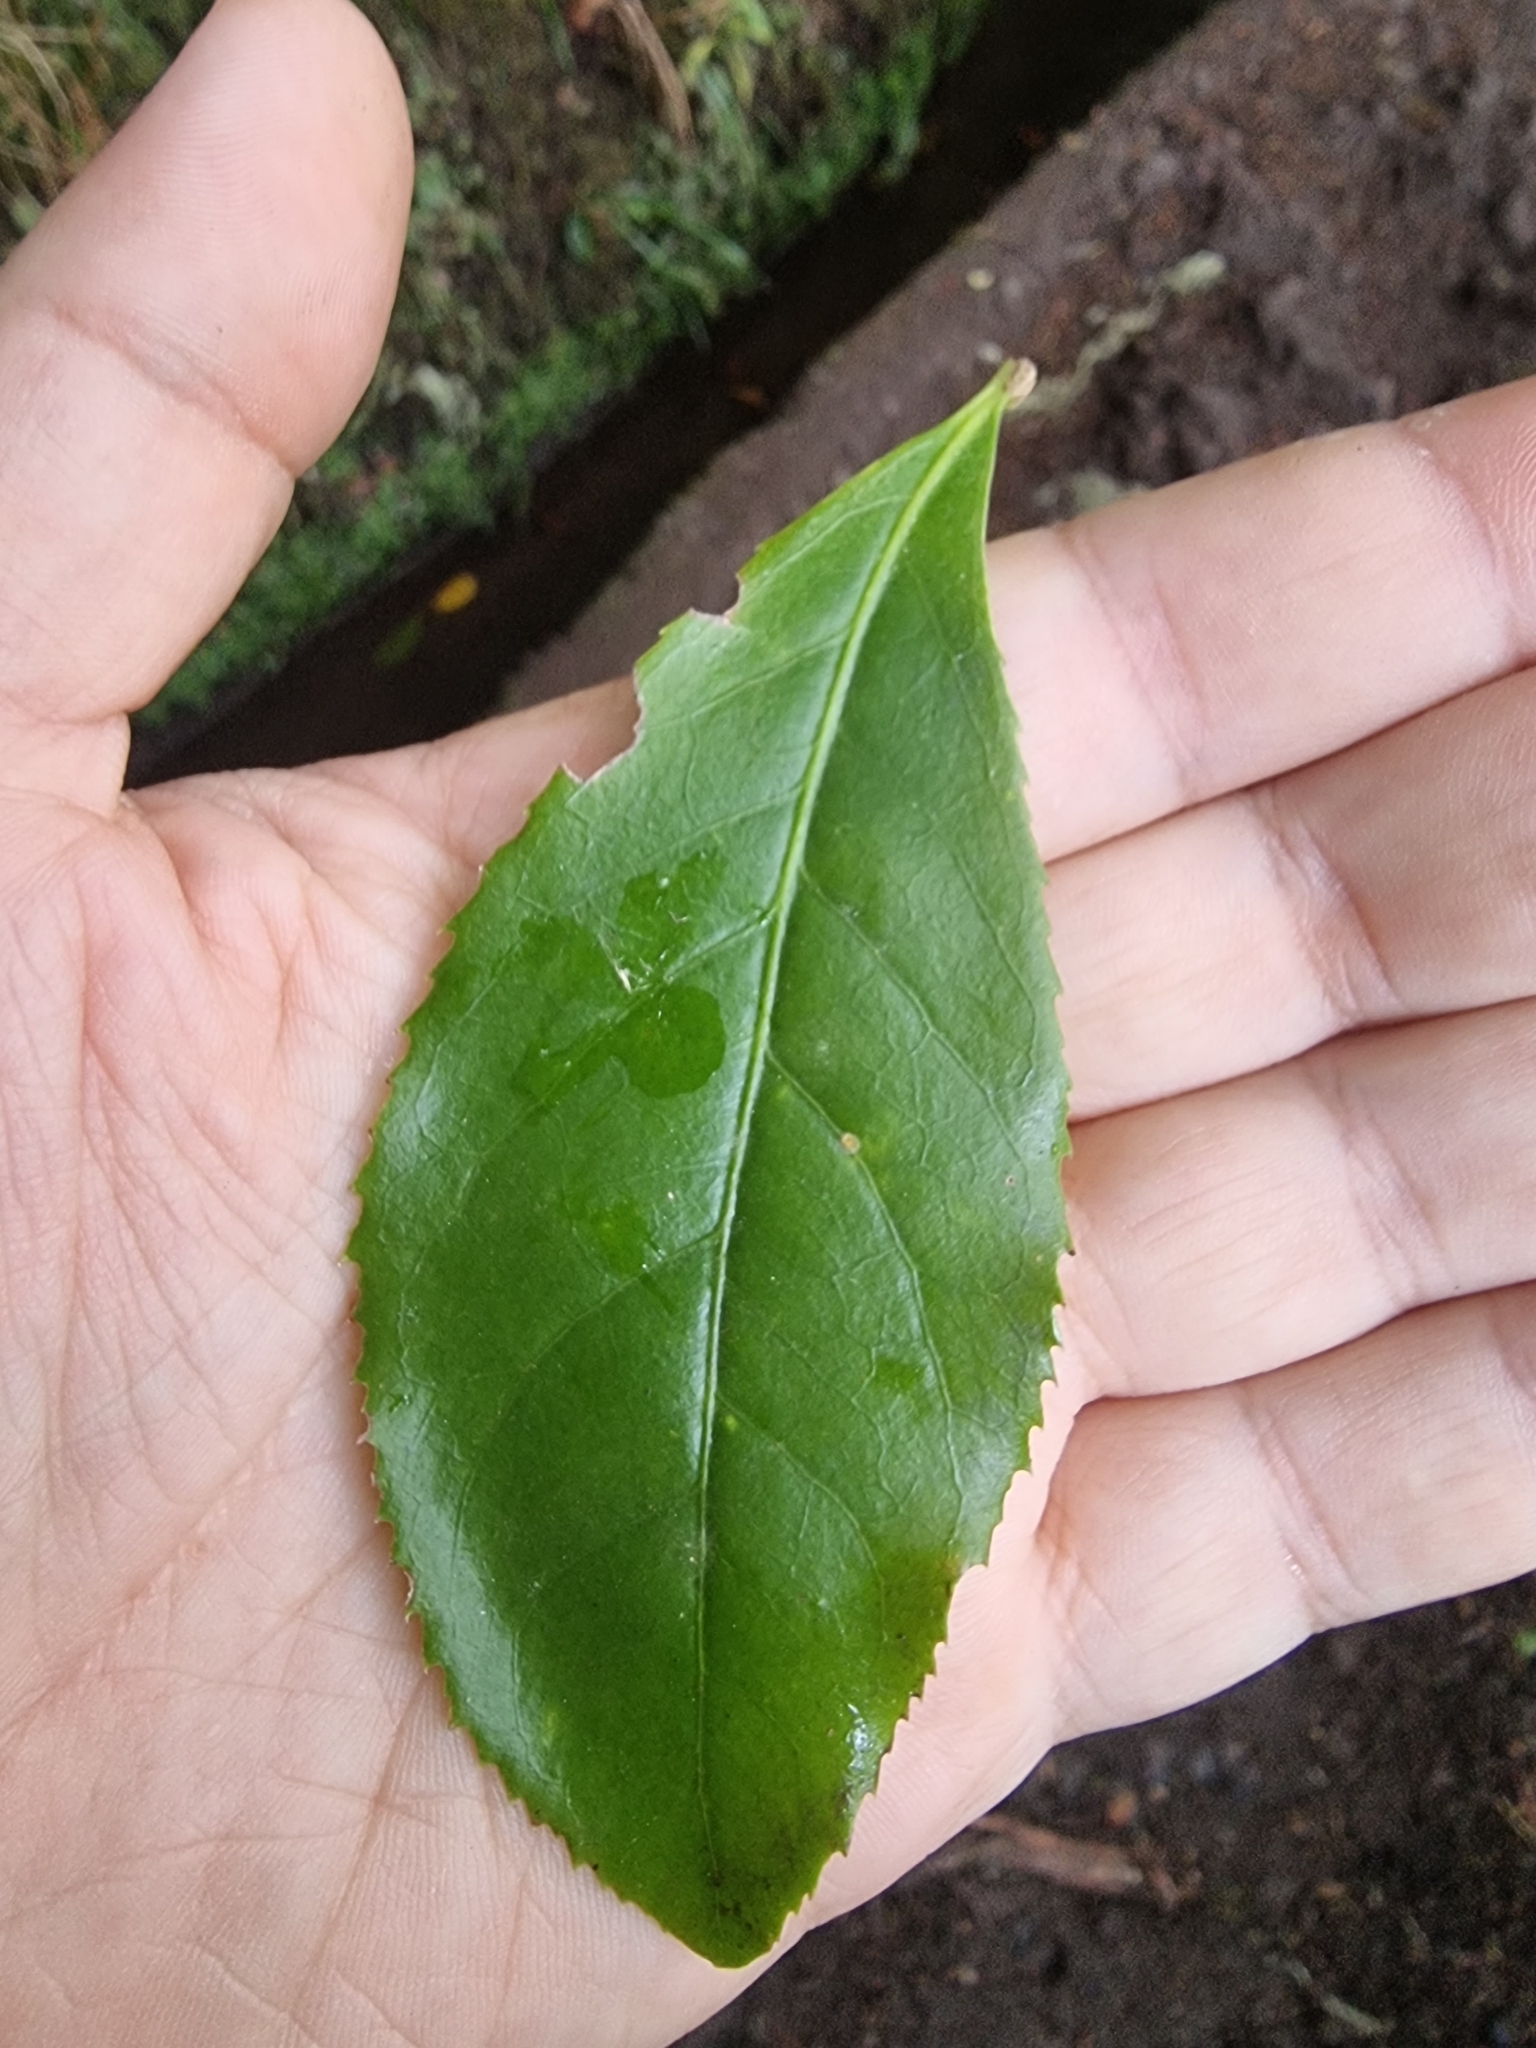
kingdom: Plantae
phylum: Tracheophyta
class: Magnoliopsida
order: Lamiales
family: Oleaceae
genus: Picconia
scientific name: Picconia excelsa
